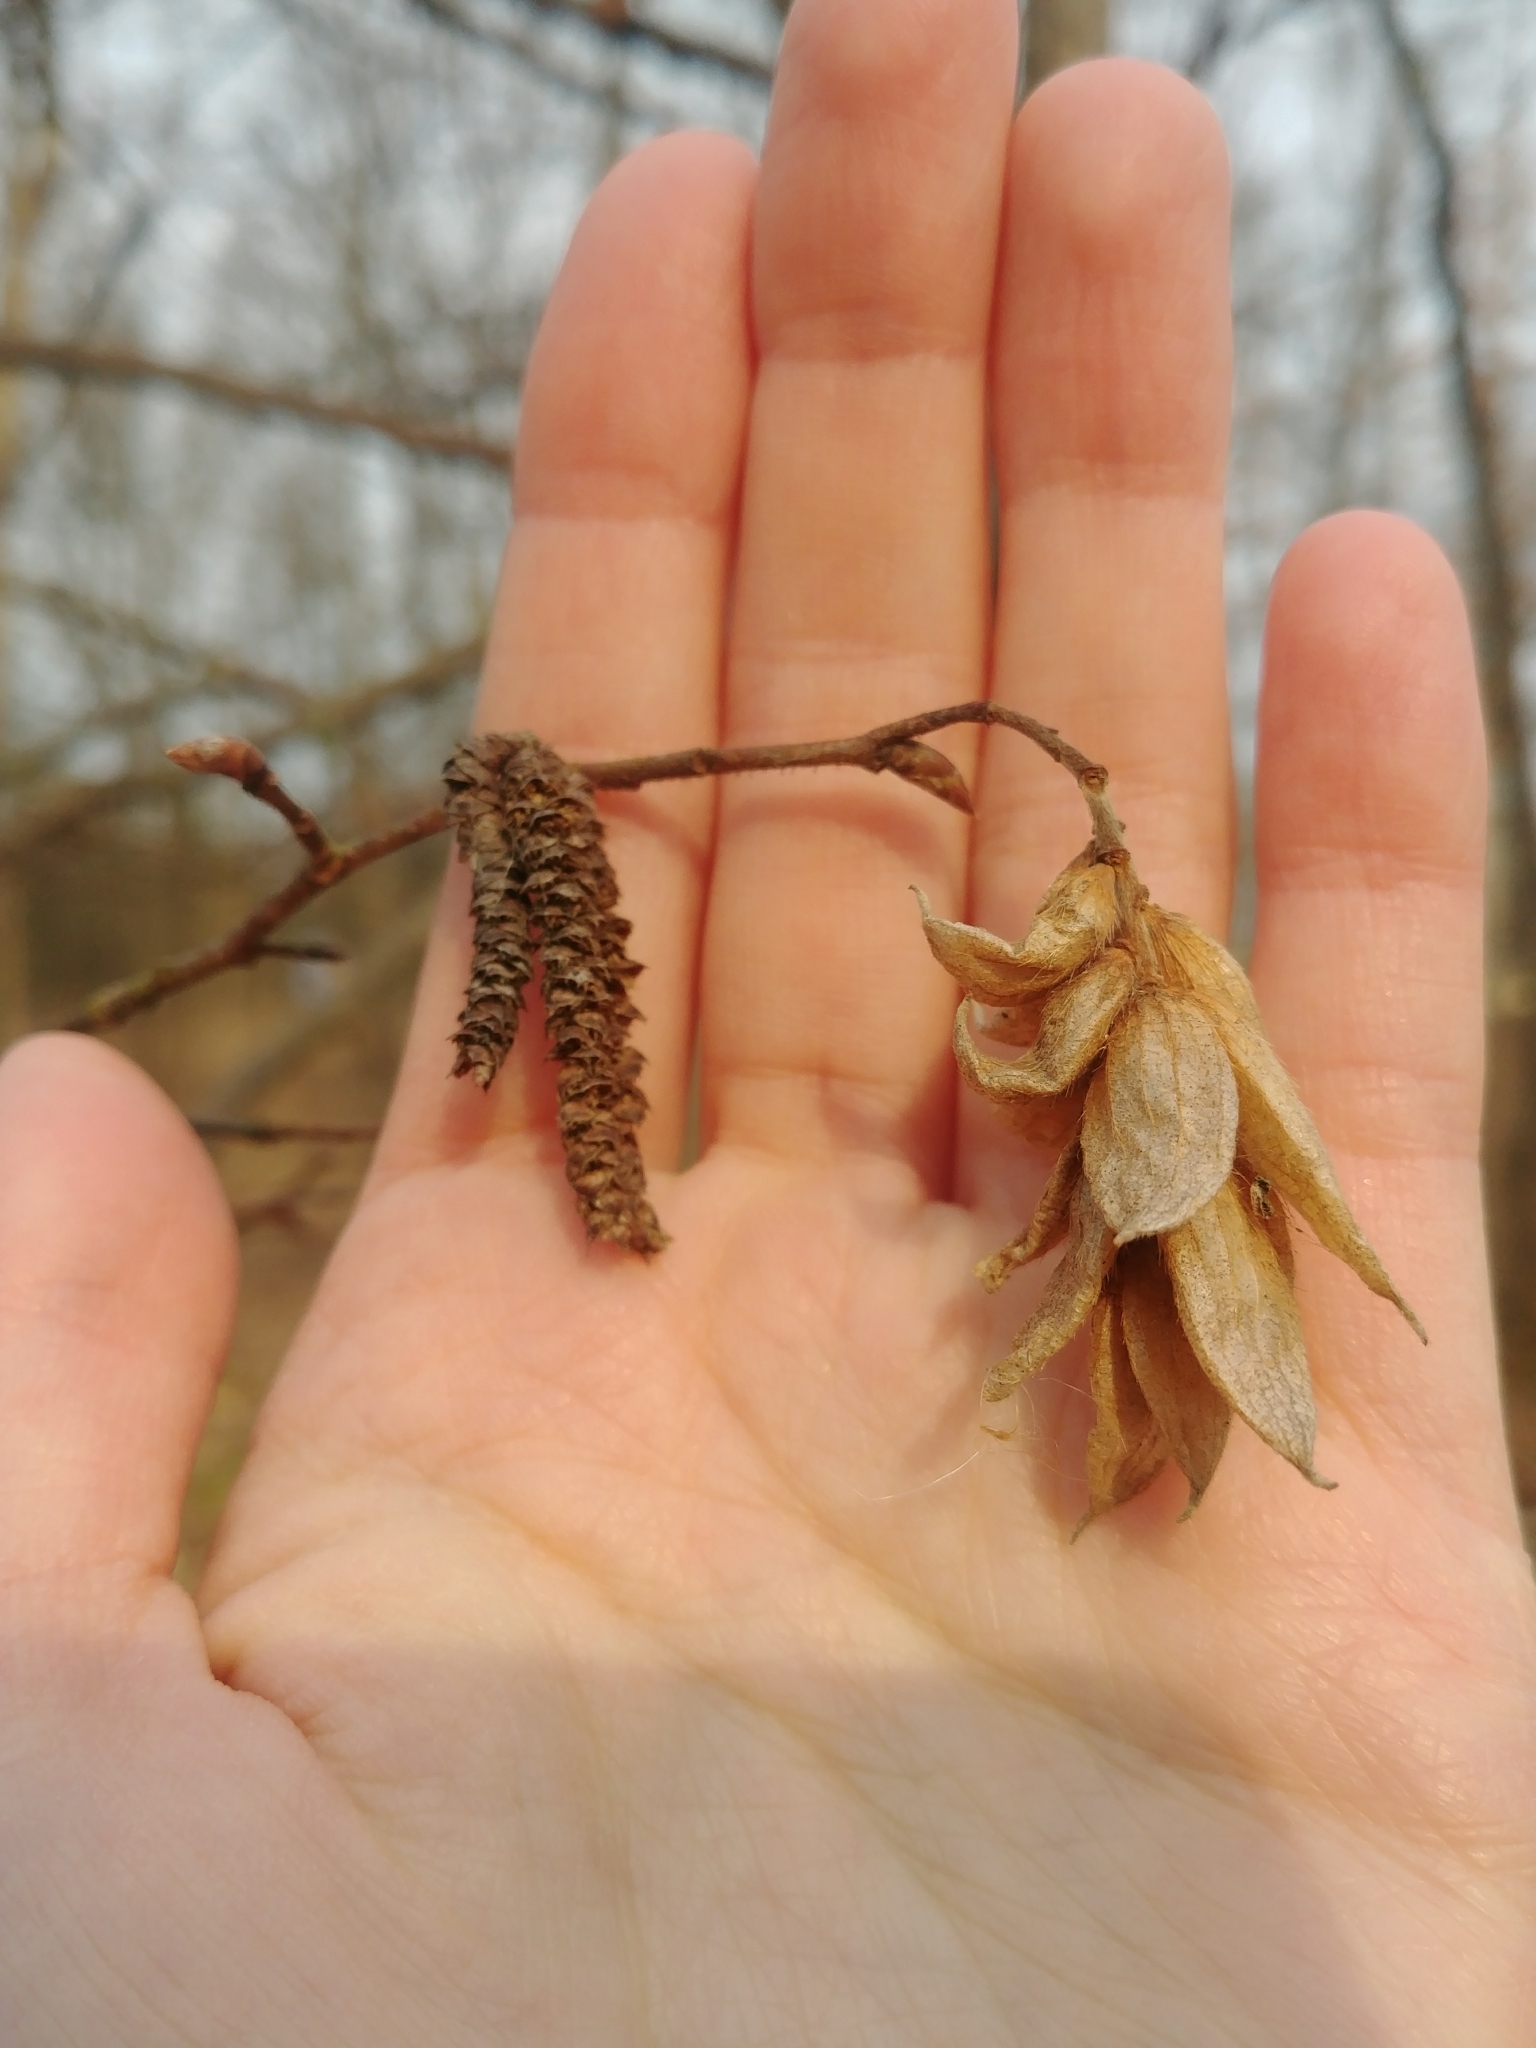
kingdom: Plantae
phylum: Tracheophyta
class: Magnoliopsida
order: Fagales
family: Betulaceae
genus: Ostrya
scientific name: Ostrya virginiana
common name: Ironwood
